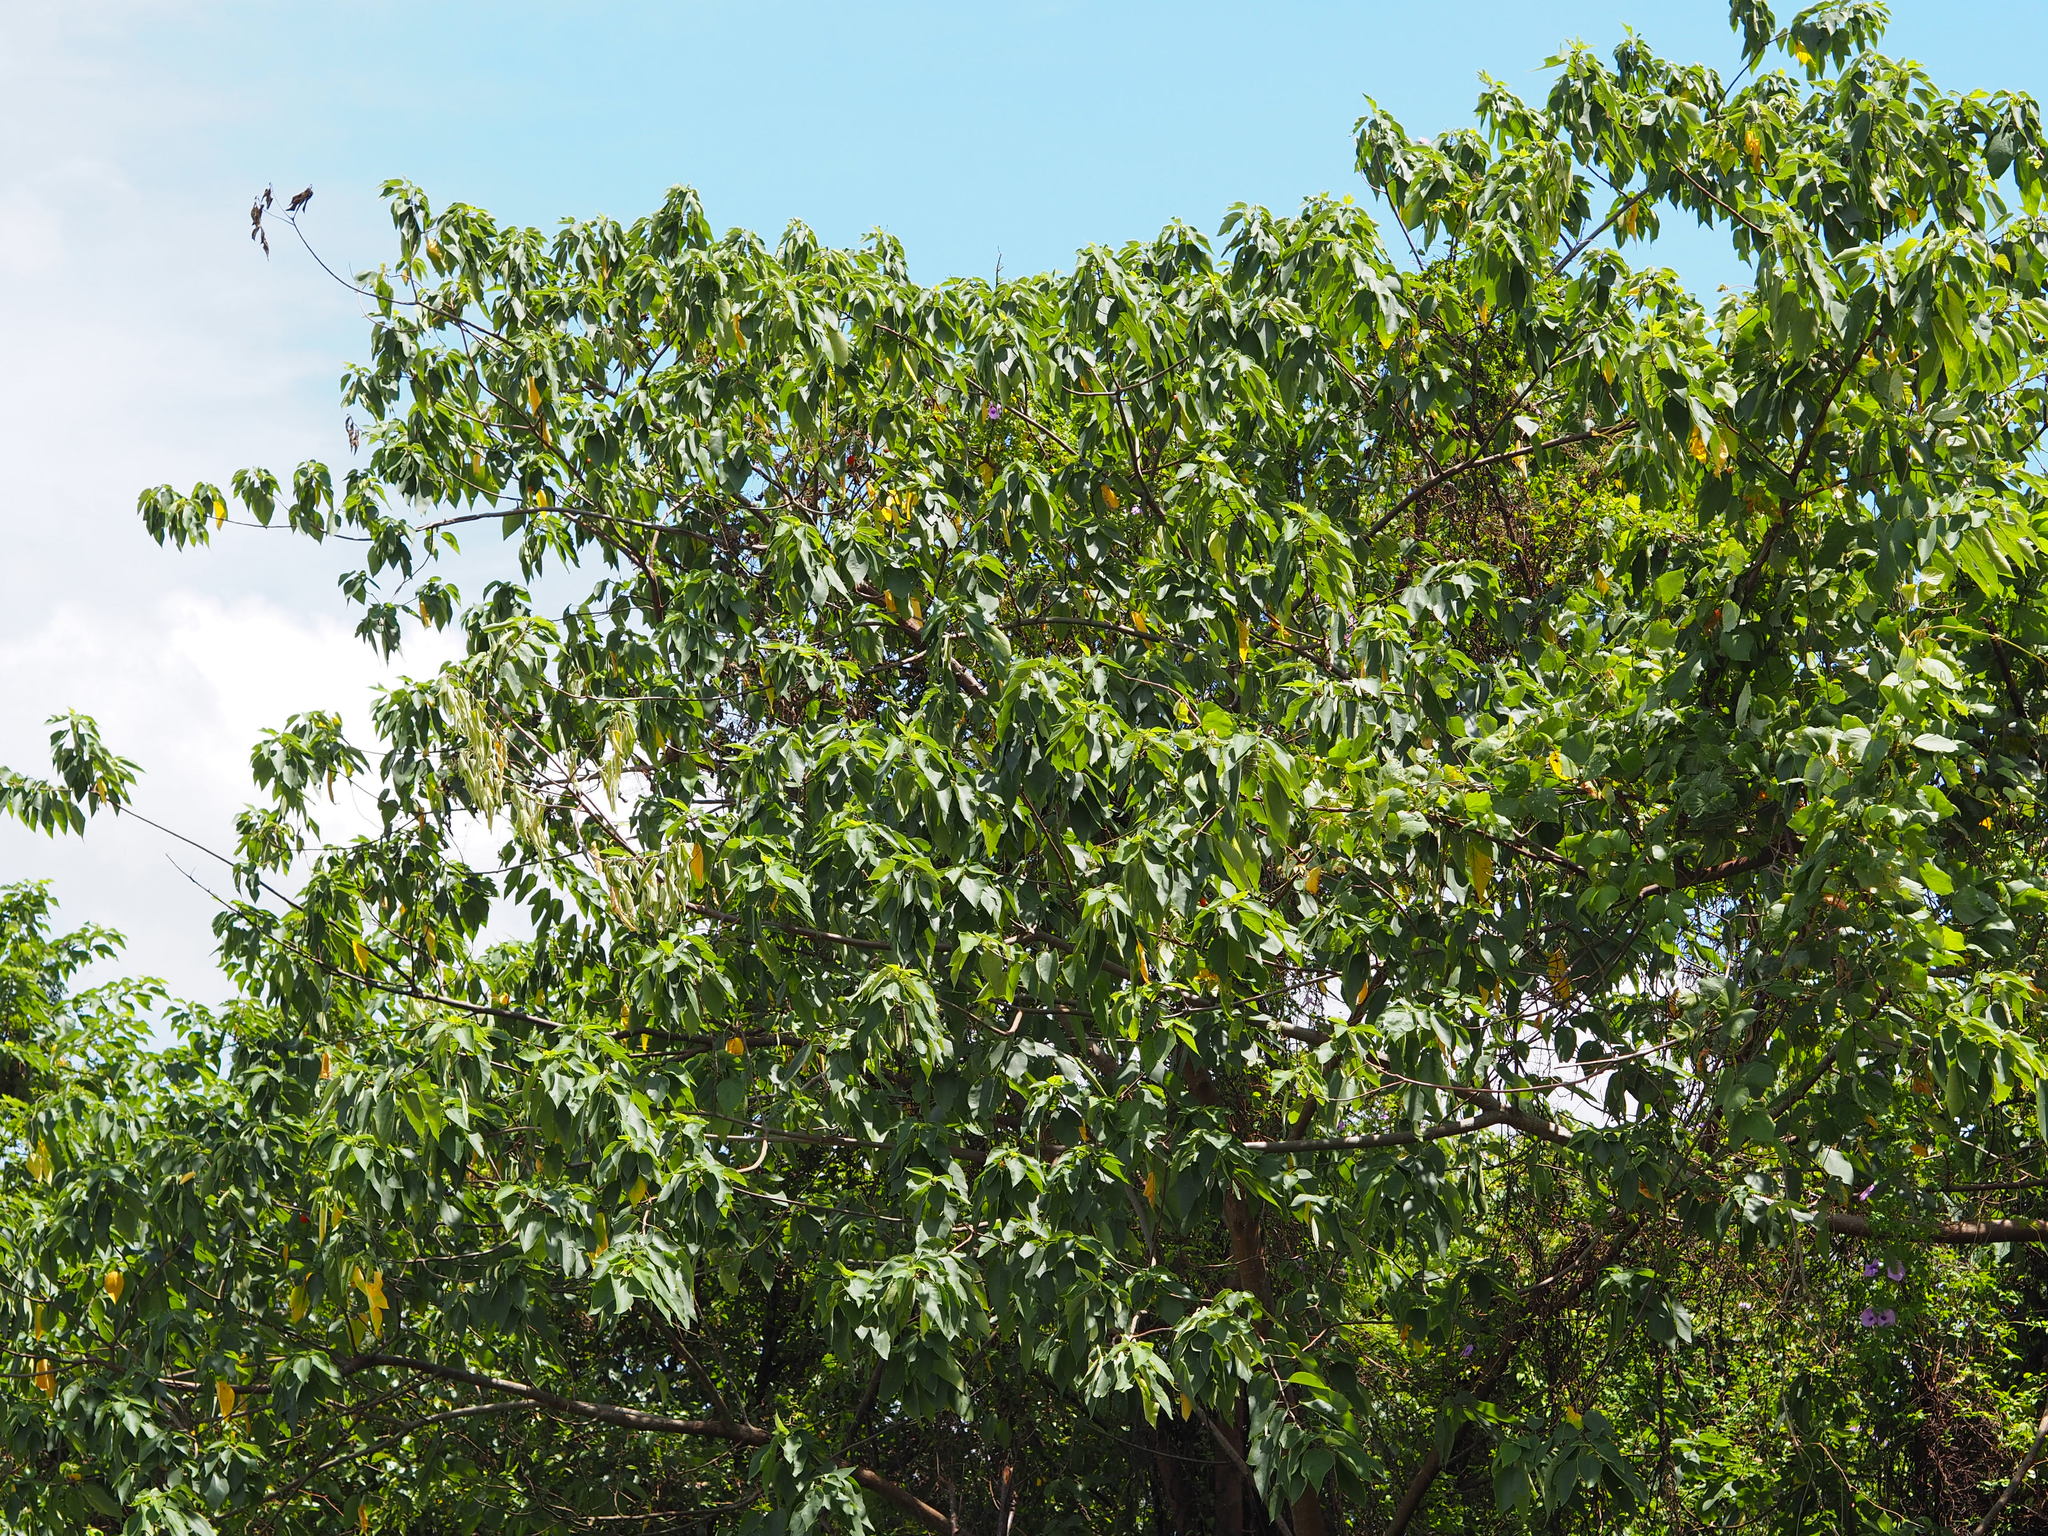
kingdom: Plantae
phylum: Tracheophyta
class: Magnoliopsida
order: Rosales
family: Moraceae
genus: Broussonetia
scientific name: Broussonetia papyrifera
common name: Paper mulberry
